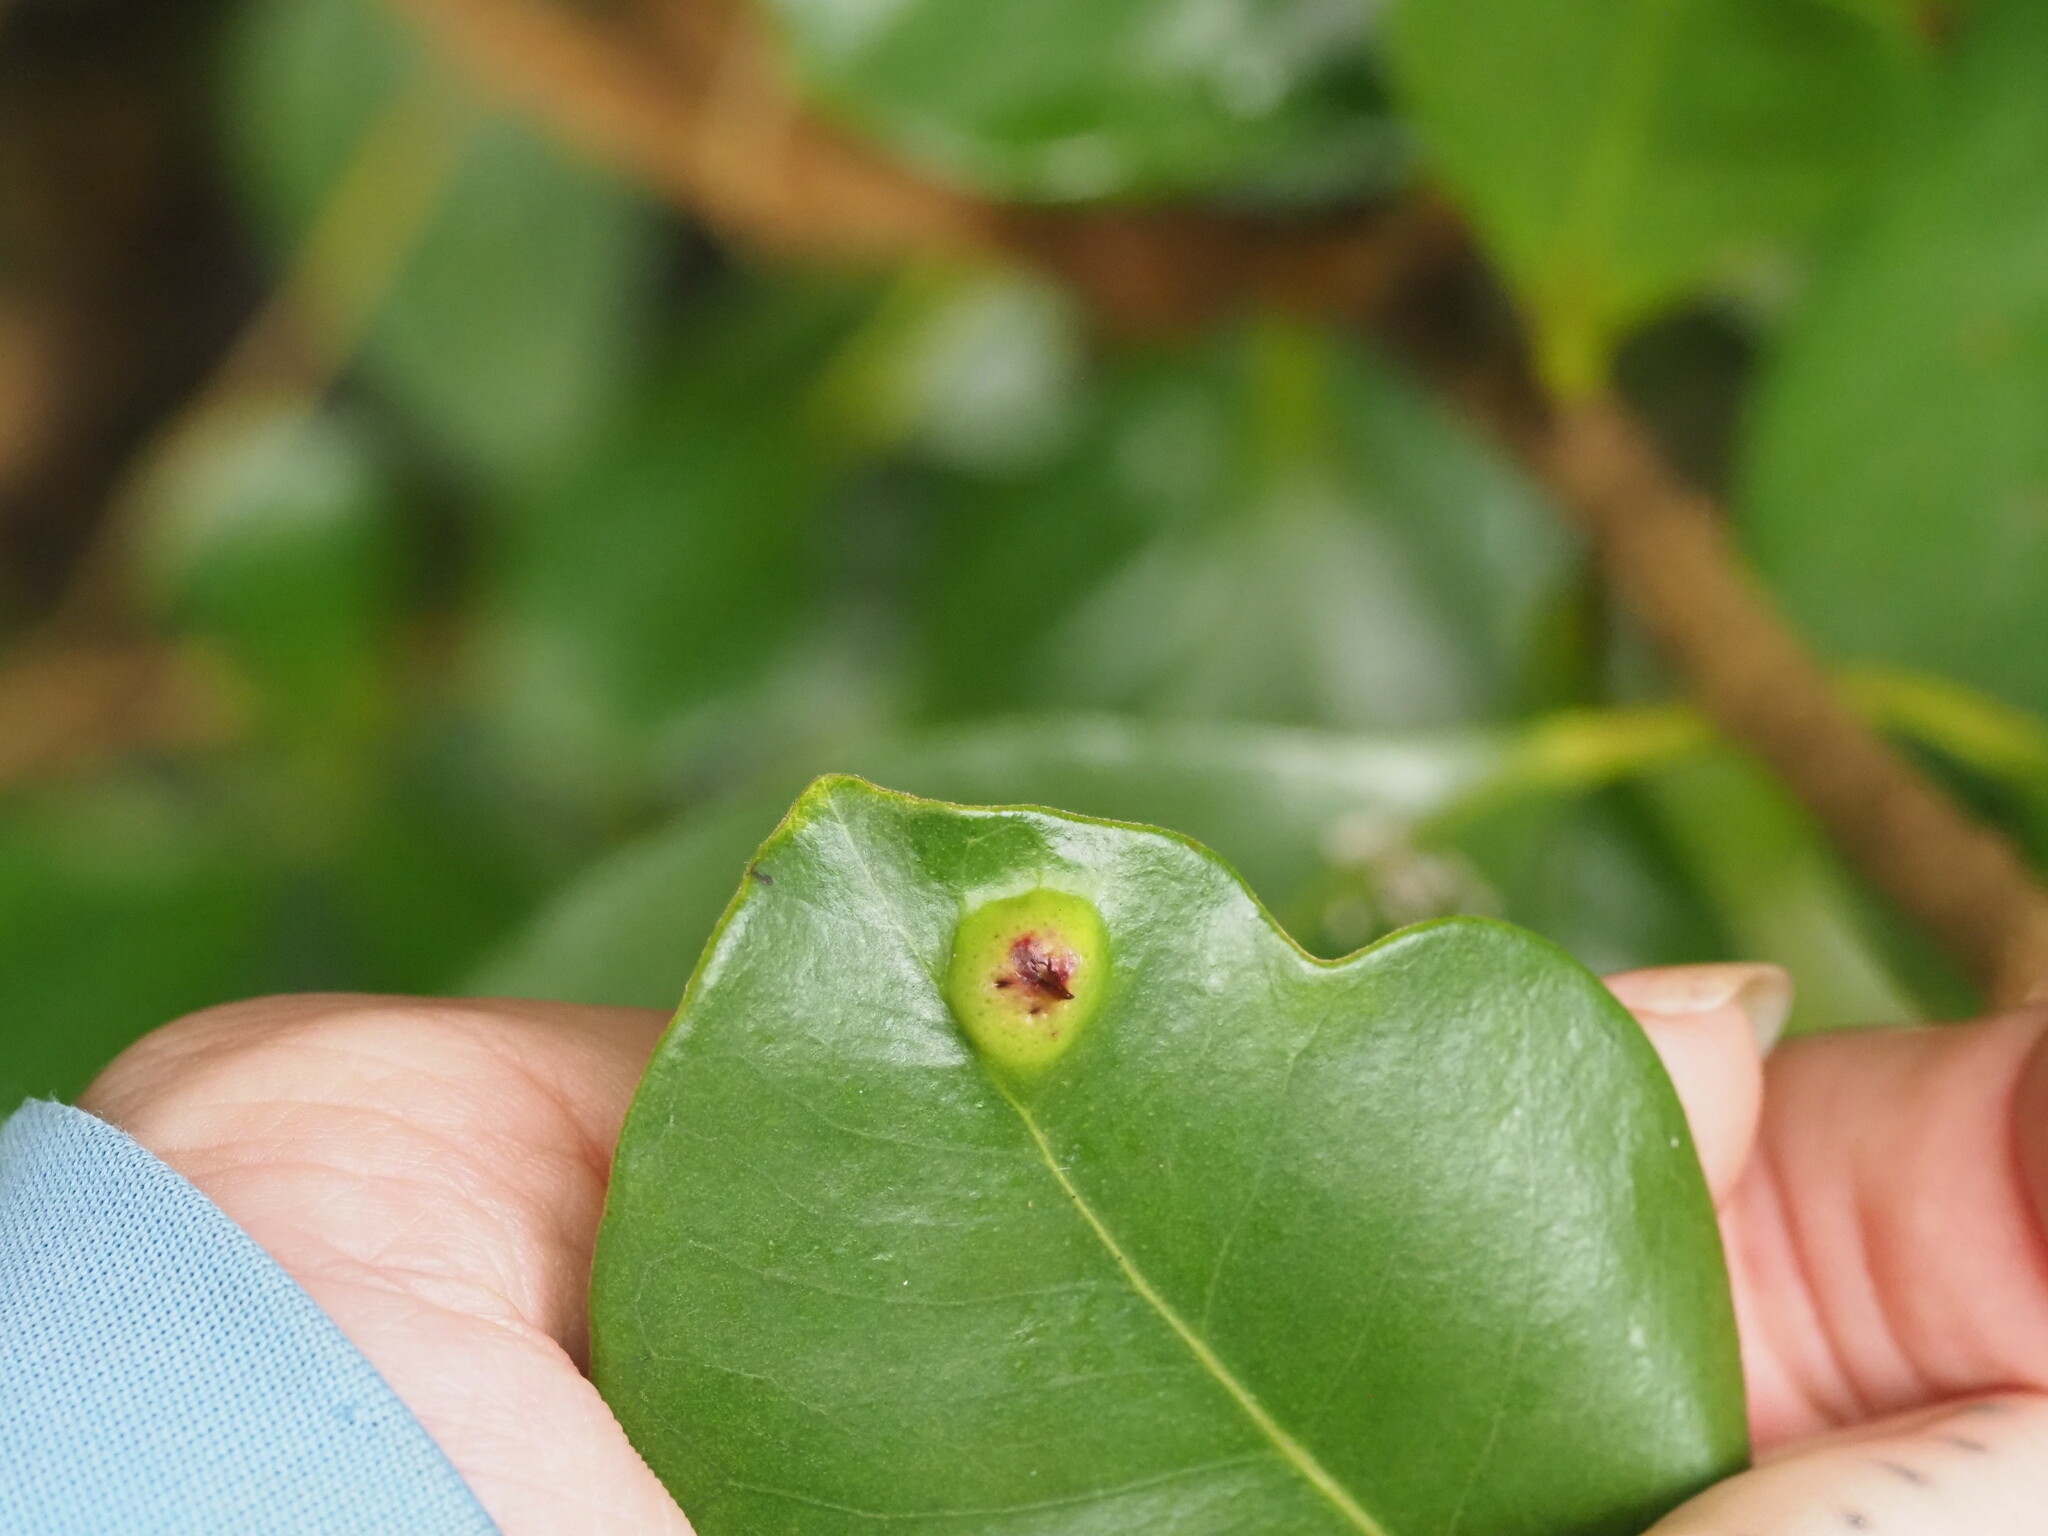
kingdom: Animalia
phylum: Arthropoda
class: Insecta
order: Hemiptera
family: Eriococcidae
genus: Tectococcus
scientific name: Tectococcus ovatus
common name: Eriococcid scale
